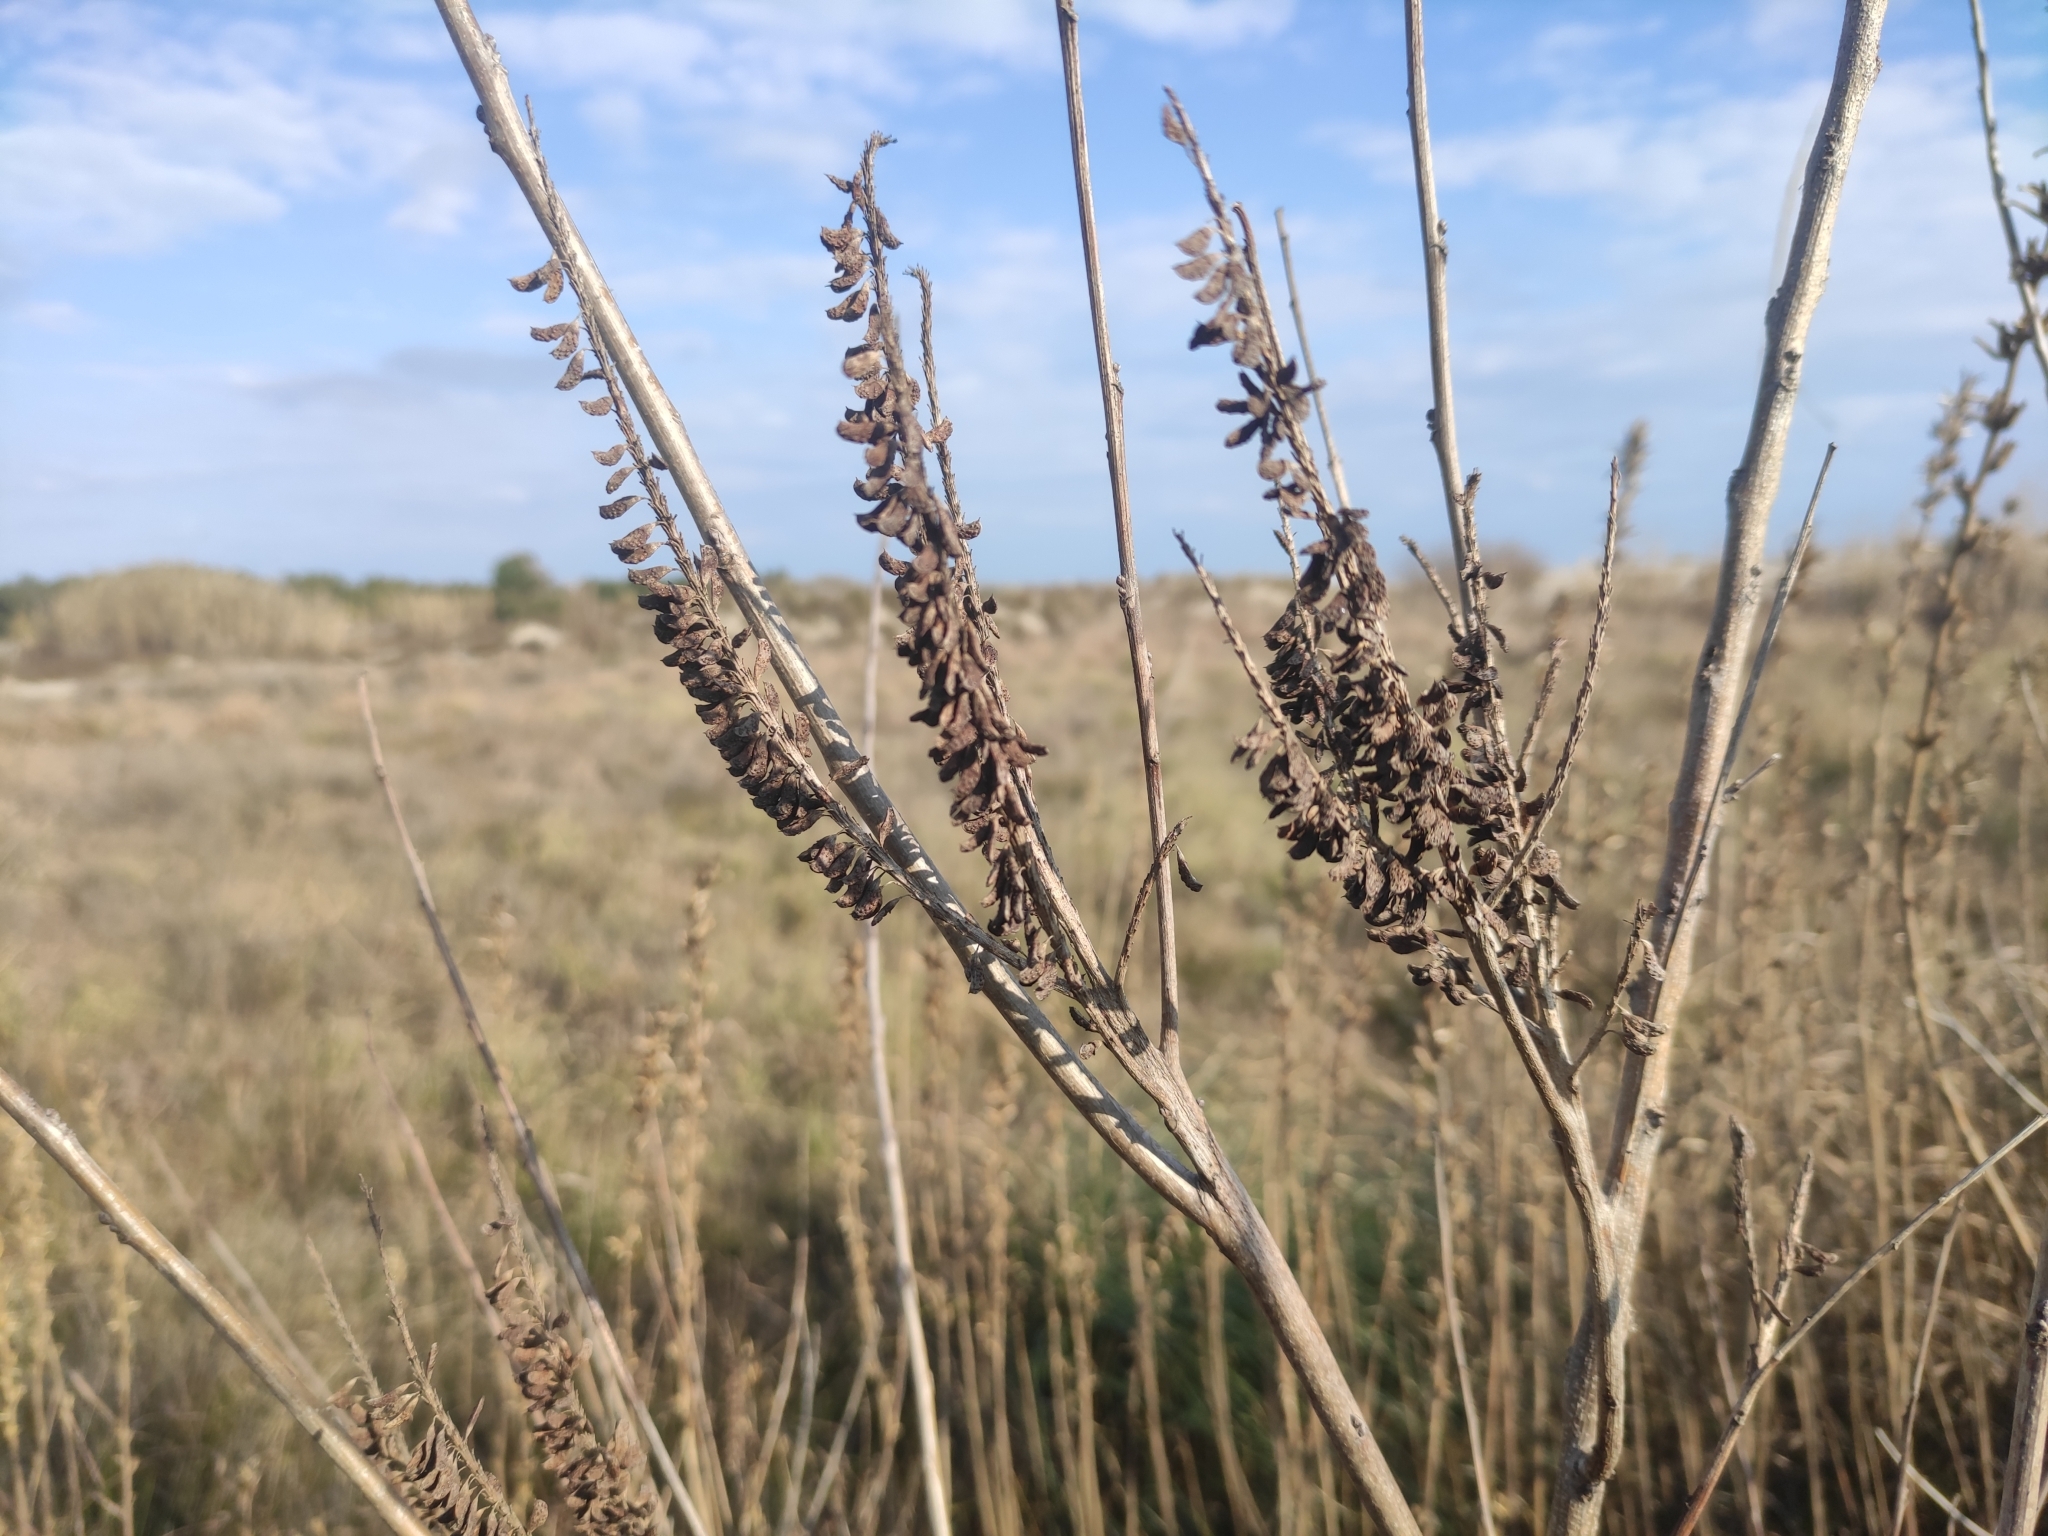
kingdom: Plantae
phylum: Tracheophyta
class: Magnoliopsida
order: Fabales
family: Fabaceae
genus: Amorpha
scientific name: Amorpha fruticosa
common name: False indigo
